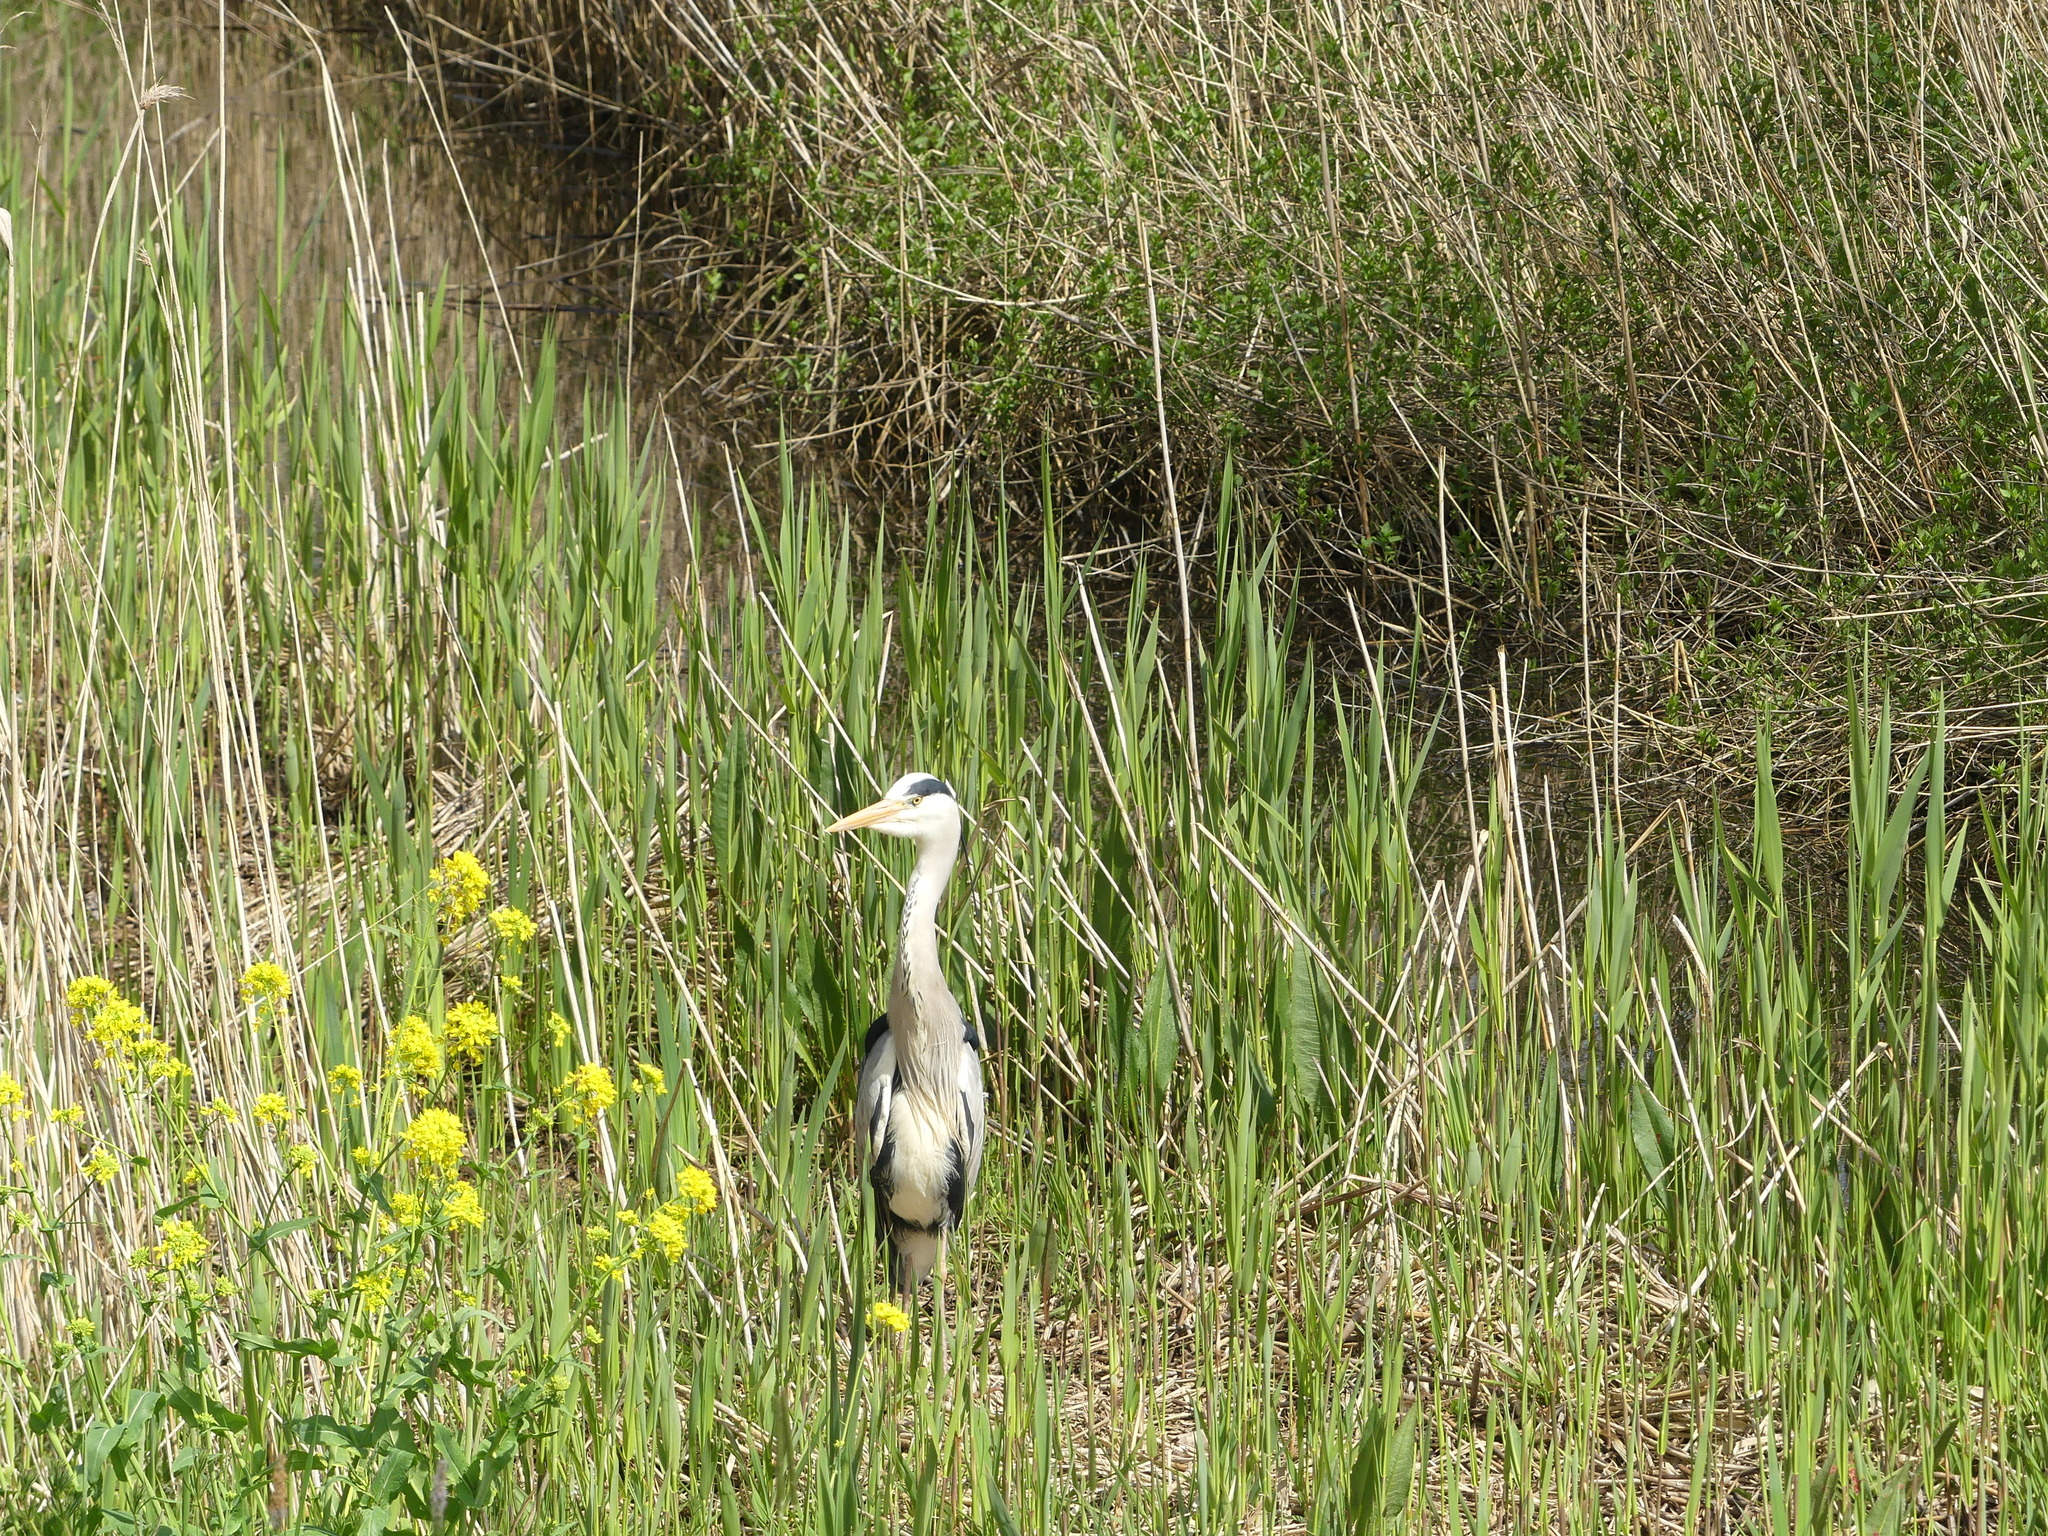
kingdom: Animalia
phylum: Chordata
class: Aves
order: Pelecaniformes
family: Ardeidae
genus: Ardea
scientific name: Ardea cinerea
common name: Grey heron
